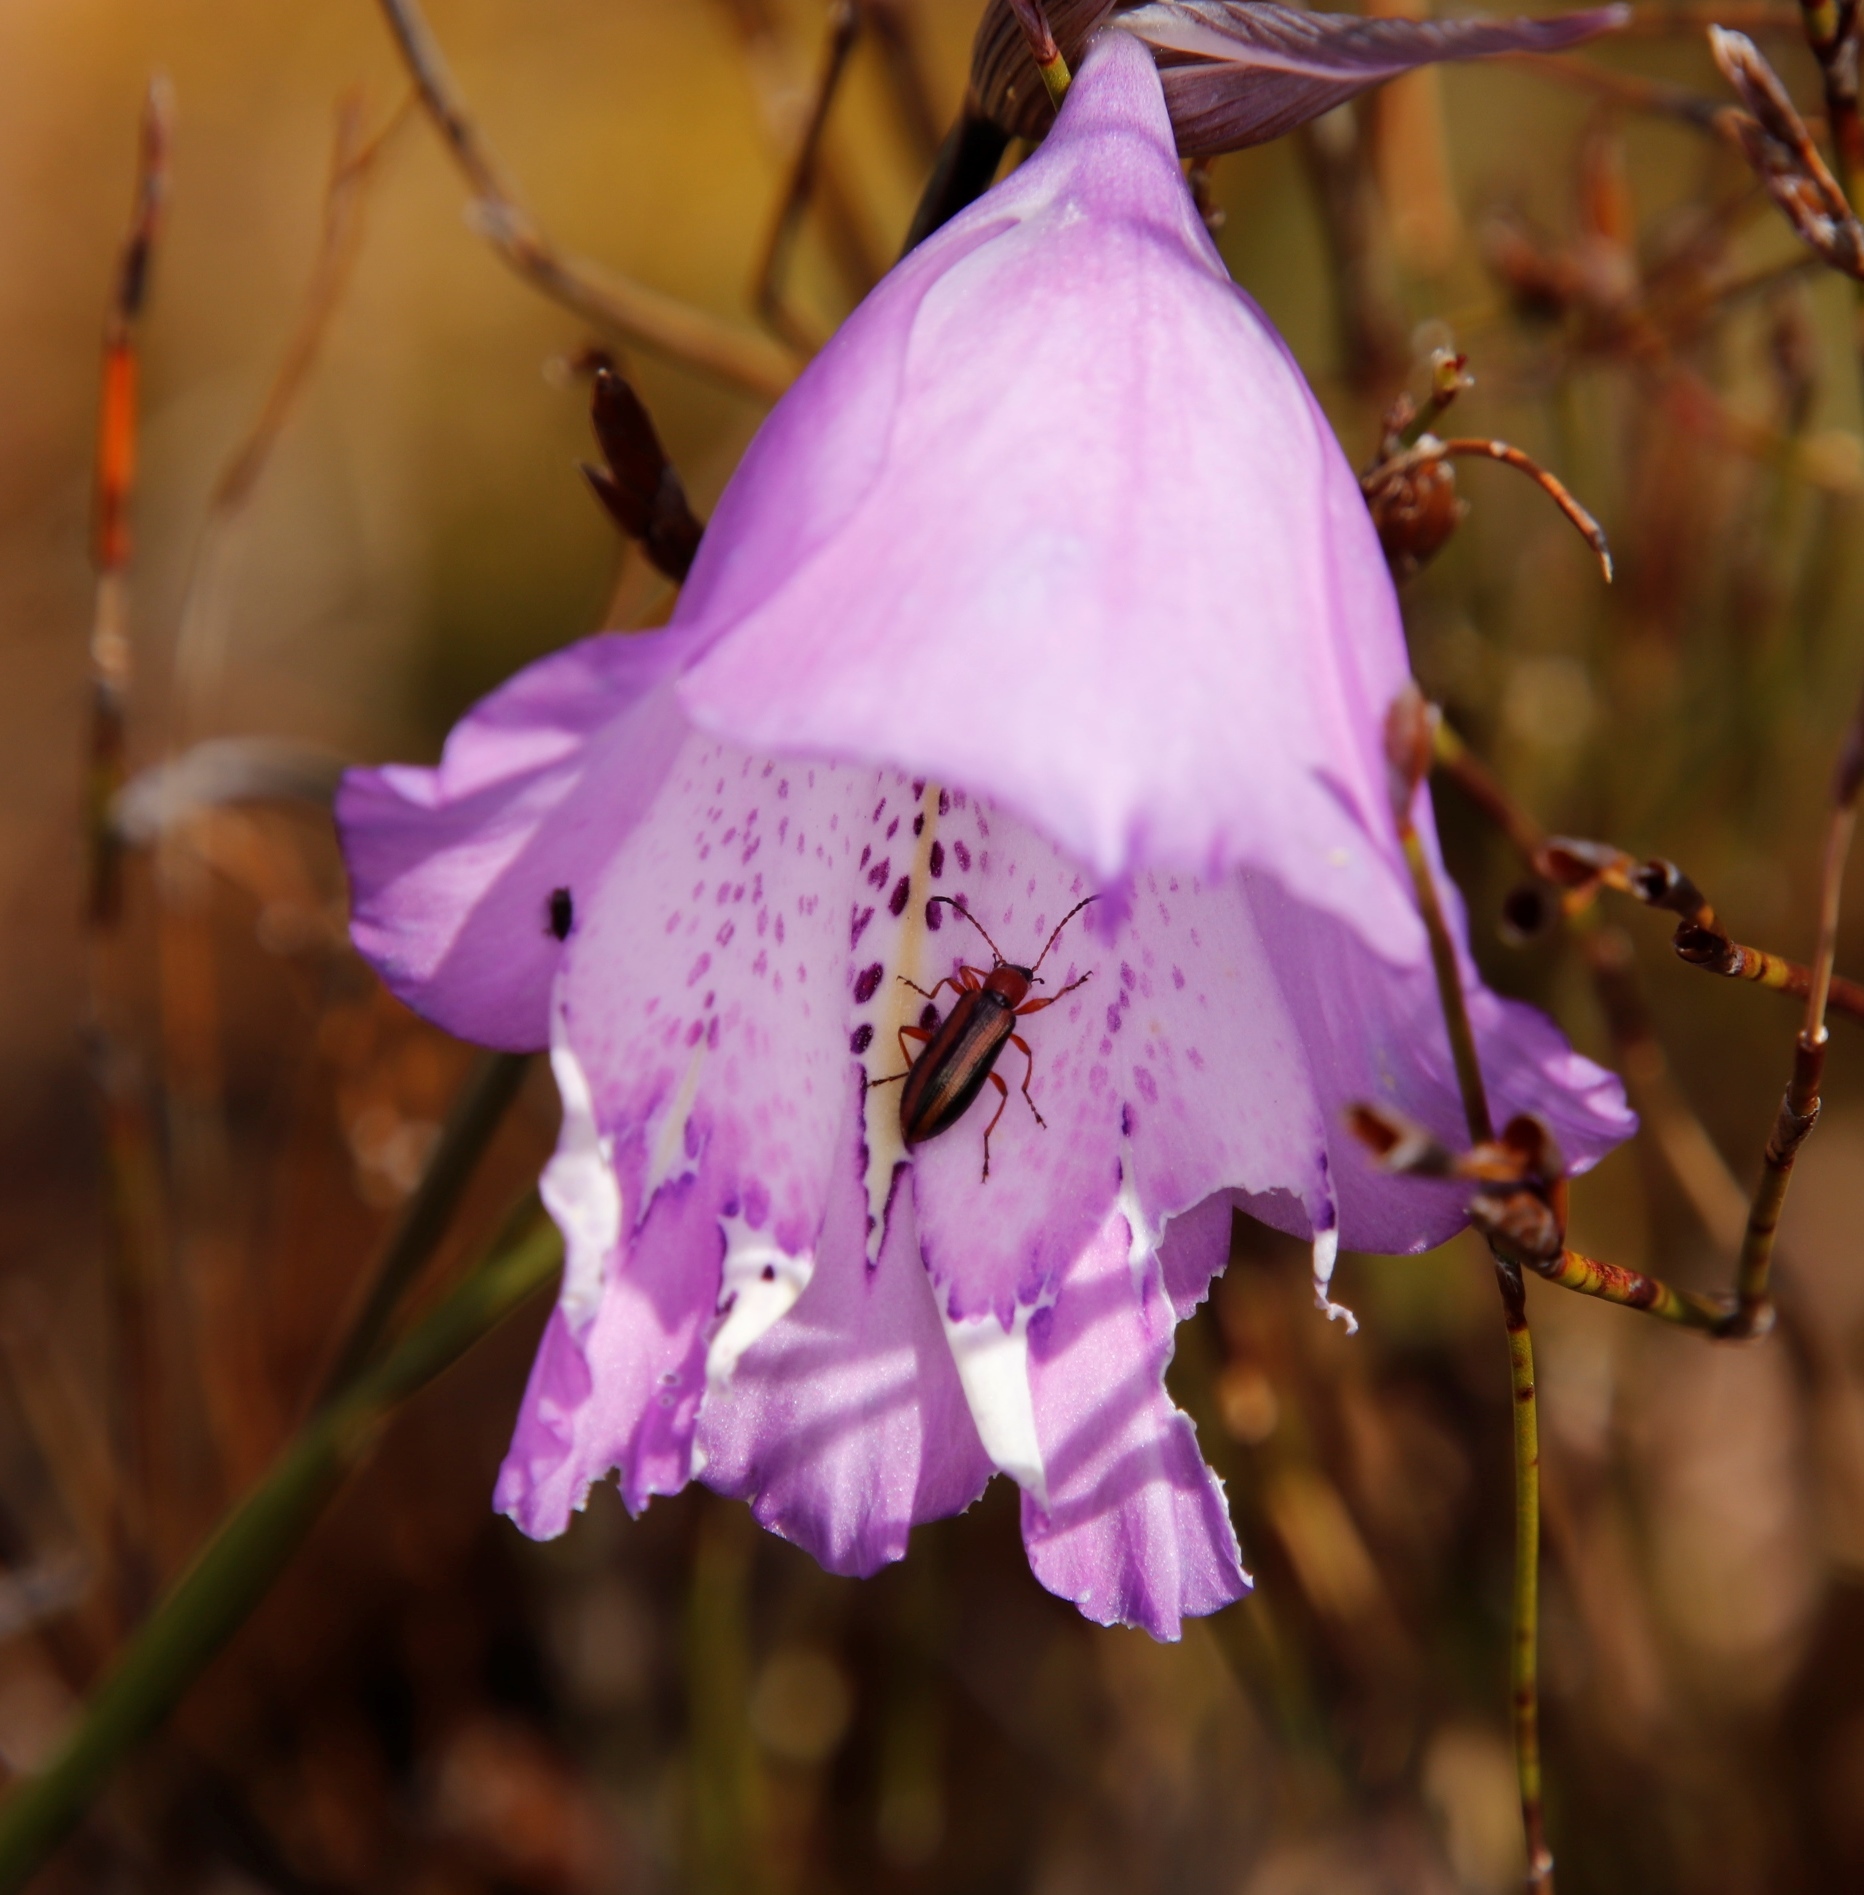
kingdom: Plantae
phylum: Tracheophyta
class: Liliopsida
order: Asparagales
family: Iridaceae
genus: Gladiolus
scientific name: Gladiolus bullatus
